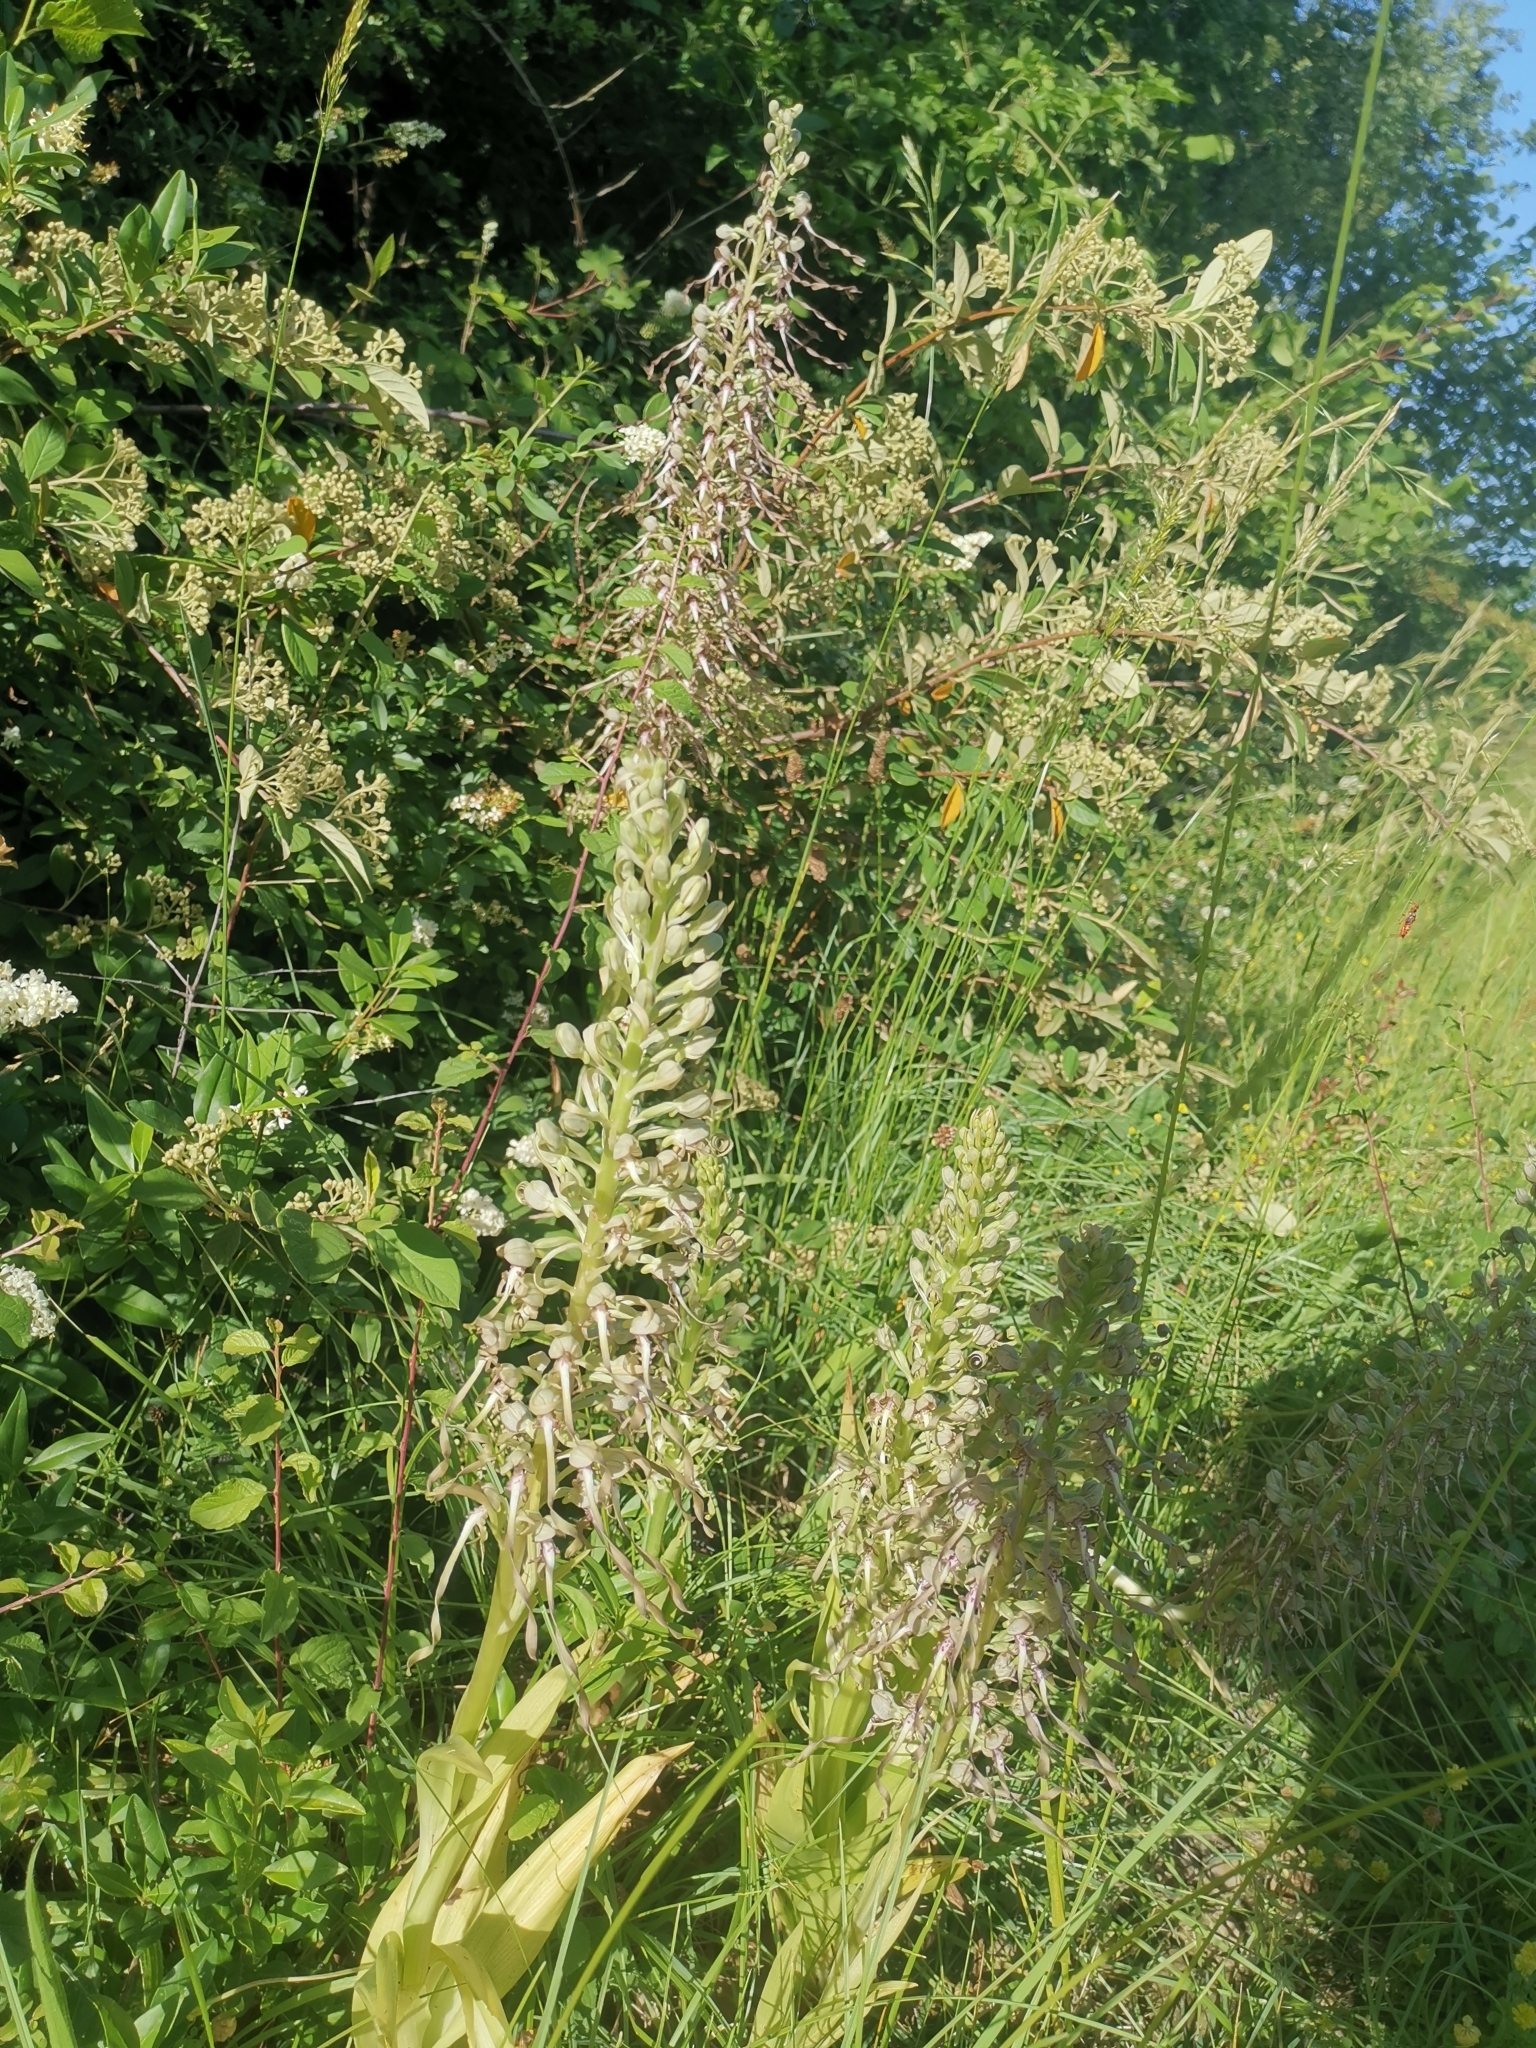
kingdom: Plantae
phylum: Tracheophyta
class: Liliopsida
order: Asparagales
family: Orchidaceae
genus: Himantoglossum
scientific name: Himantoglossum hircinum
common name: Lizard orchid
